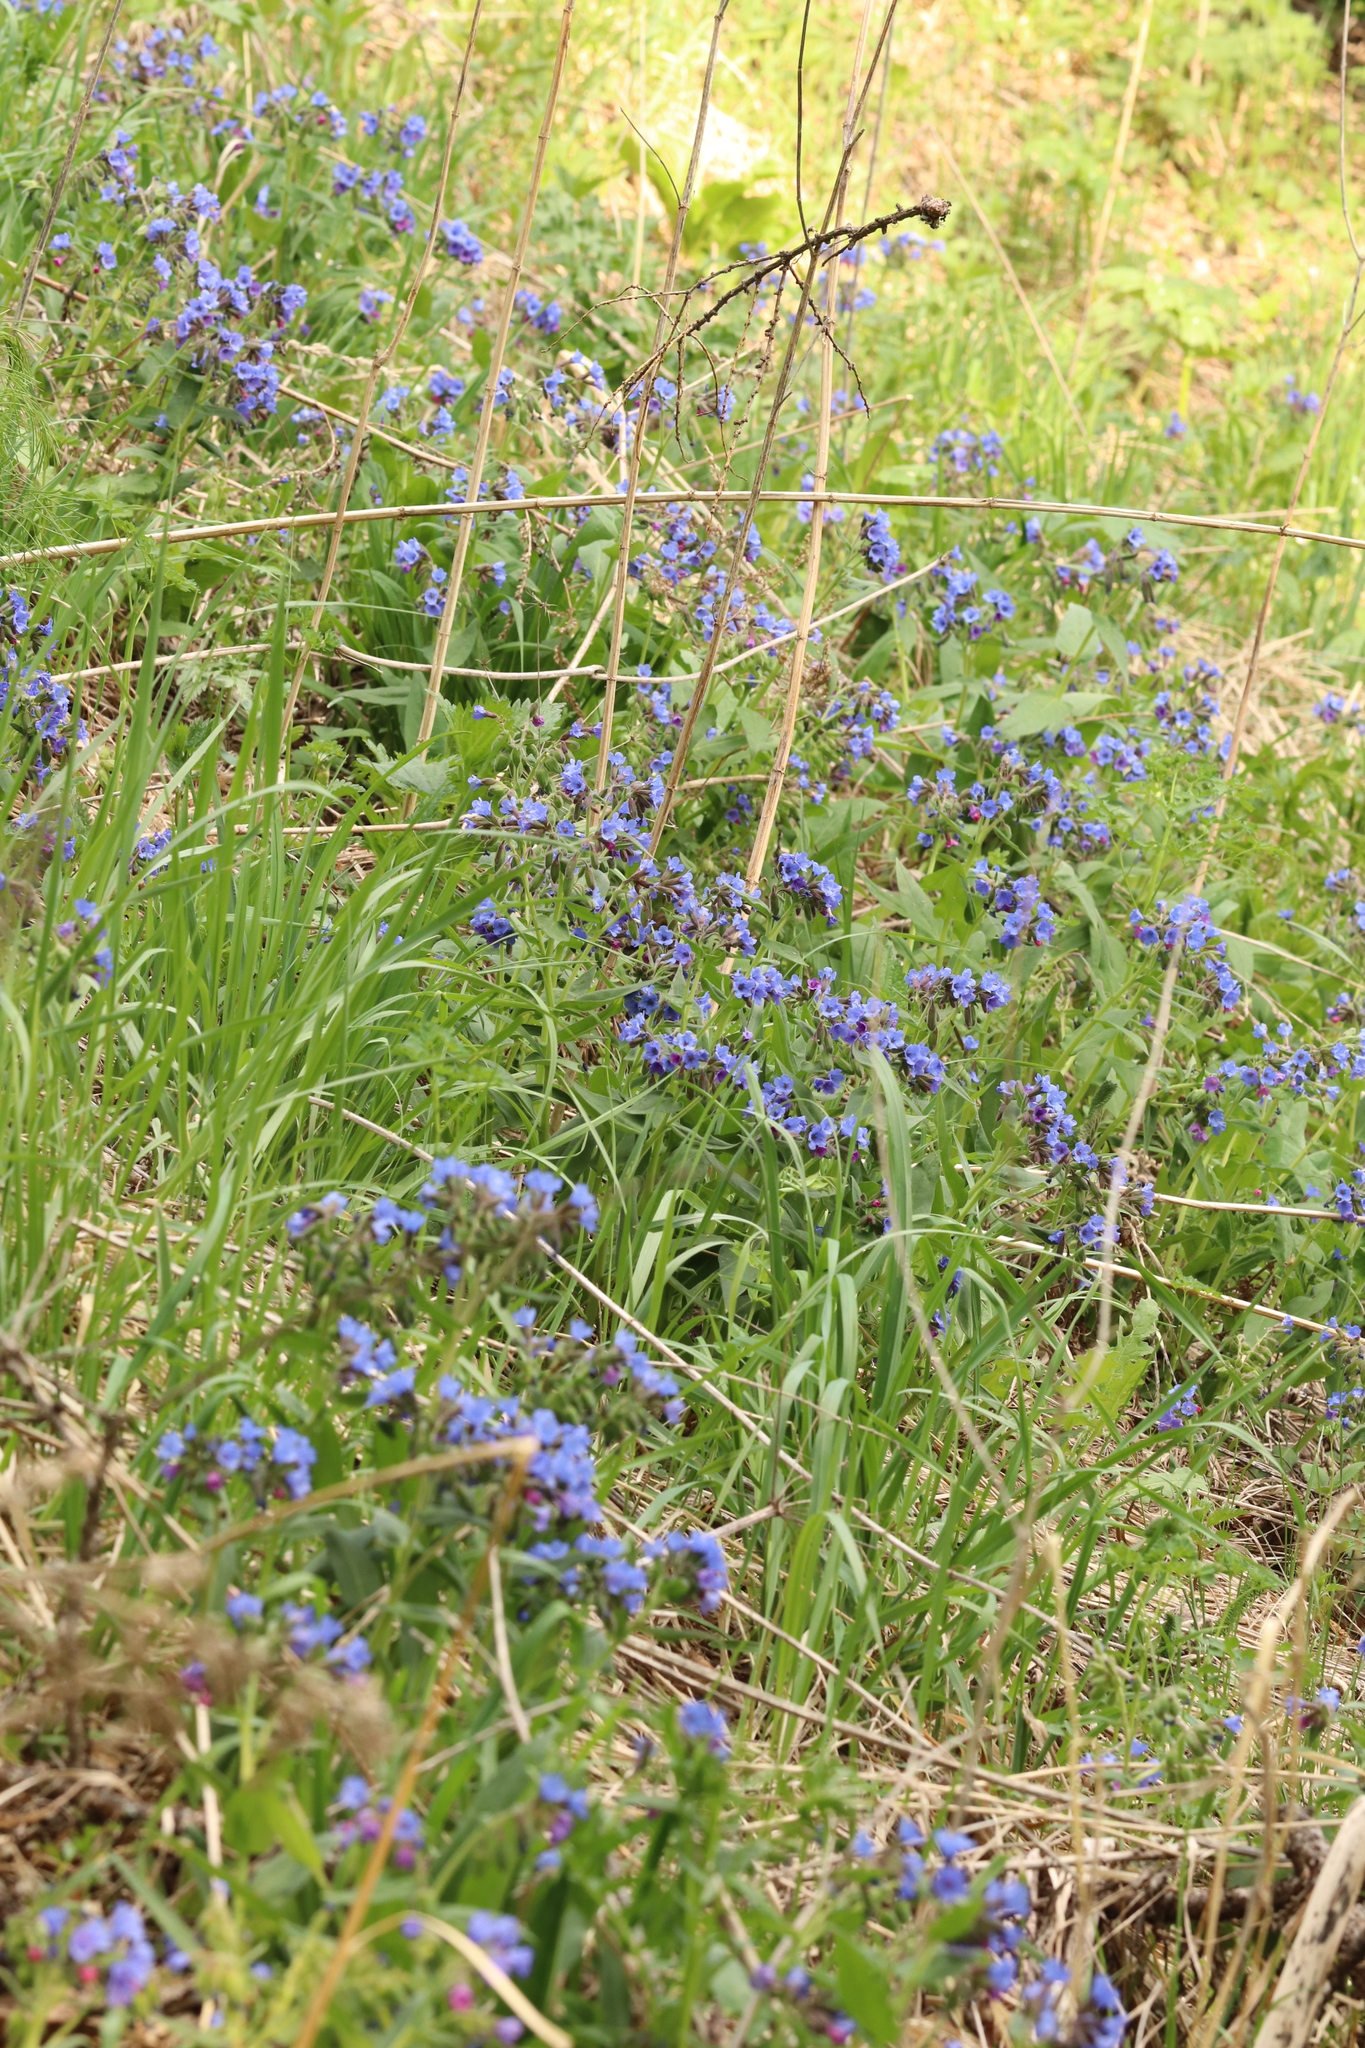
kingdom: Plantae
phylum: Tracheophyta
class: Magnoliopsida
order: Boraginales
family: Boraginaceae
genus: Pulmonaria
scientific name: Pulmonaria mollis
